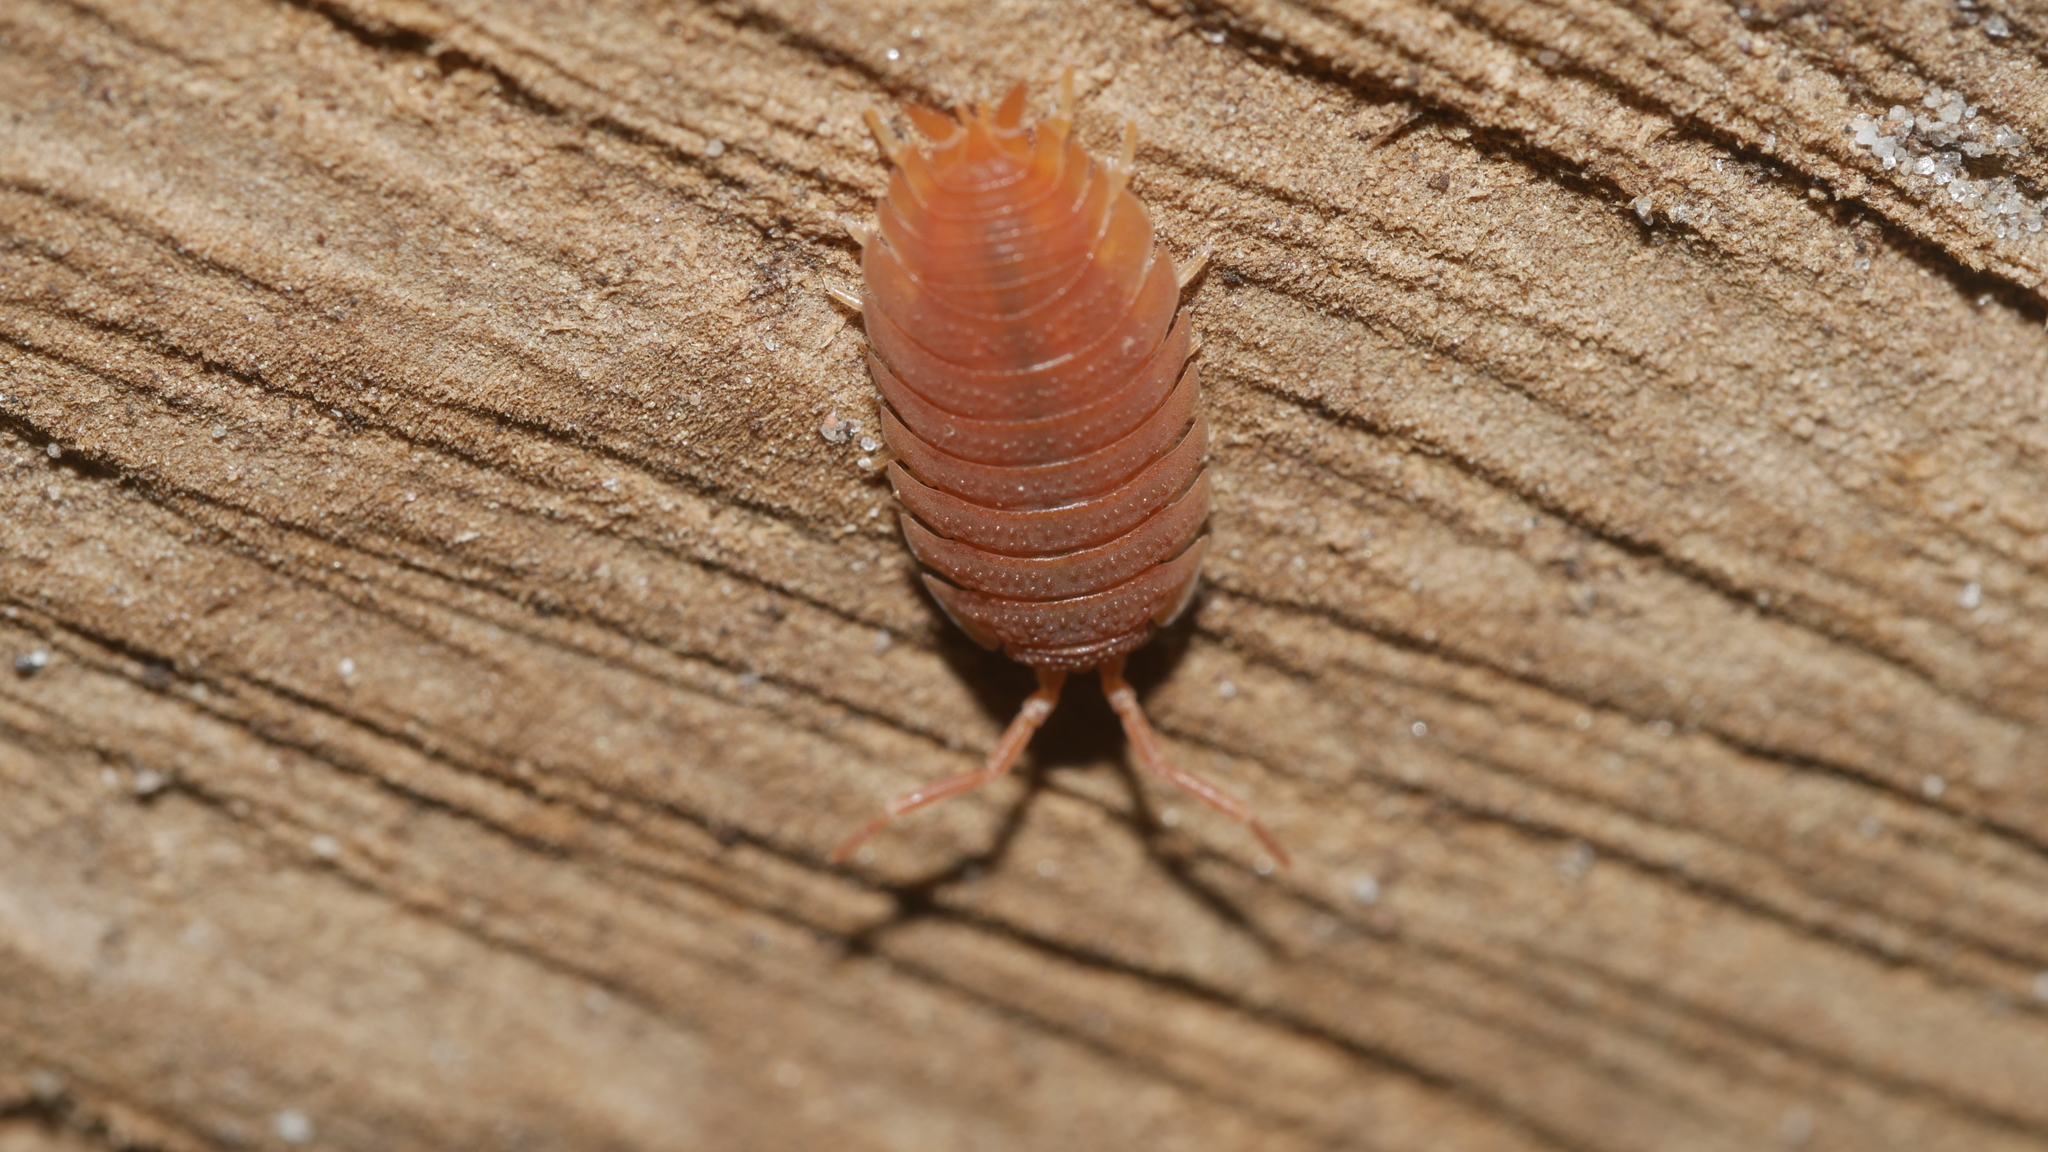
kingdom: Animalia
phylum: Arthropoda
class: Malacostraca
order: Isopoda
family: Porcellionidae
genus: Porcellio
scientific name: Porcellio scaber
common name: Common rough woodlouse
